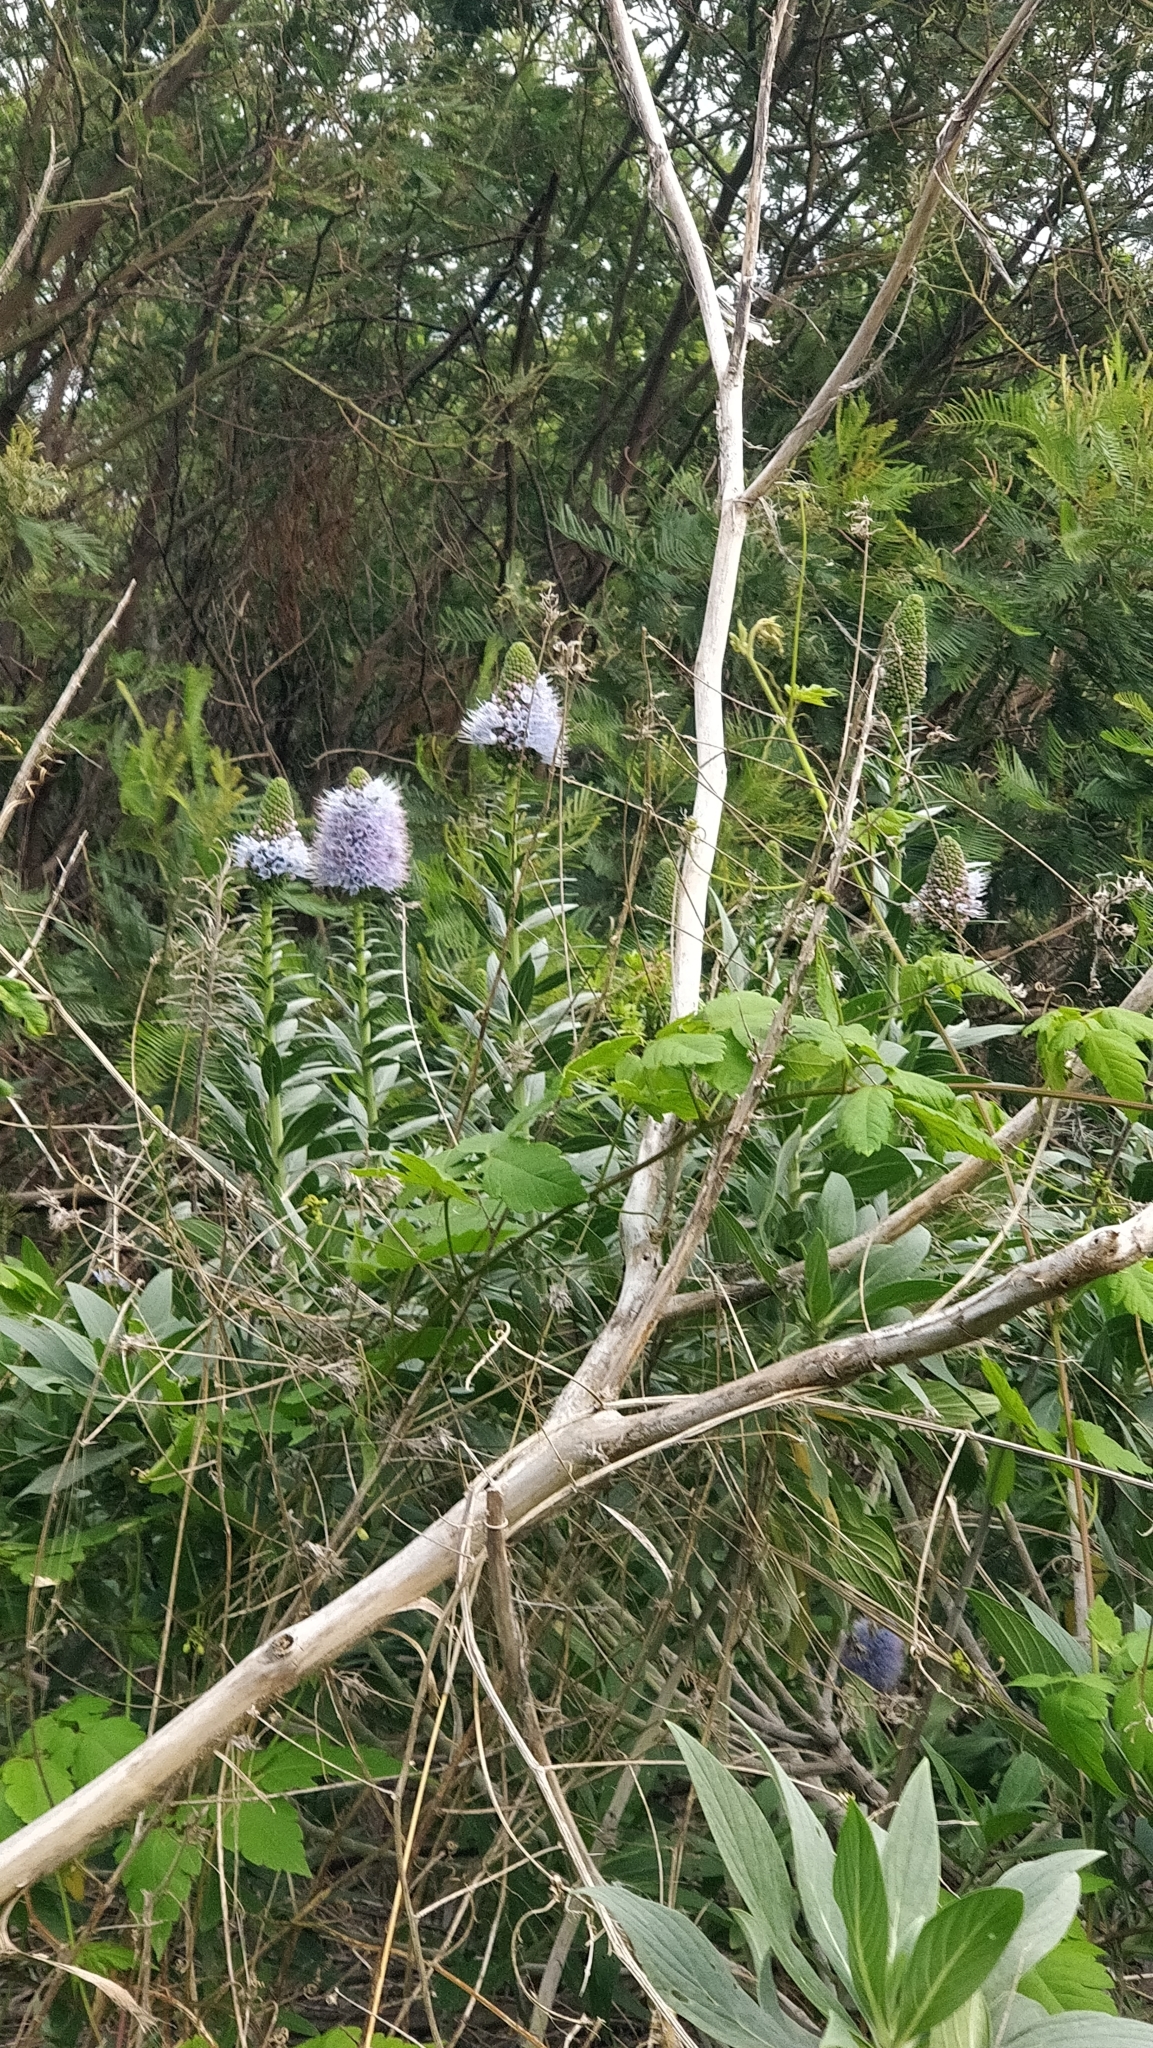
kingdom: Plantae
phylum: Tracheophyta
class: Magnoliopsida
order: Boraginales
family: Boraginaceae
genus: Echium
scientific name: Echium nervosum
